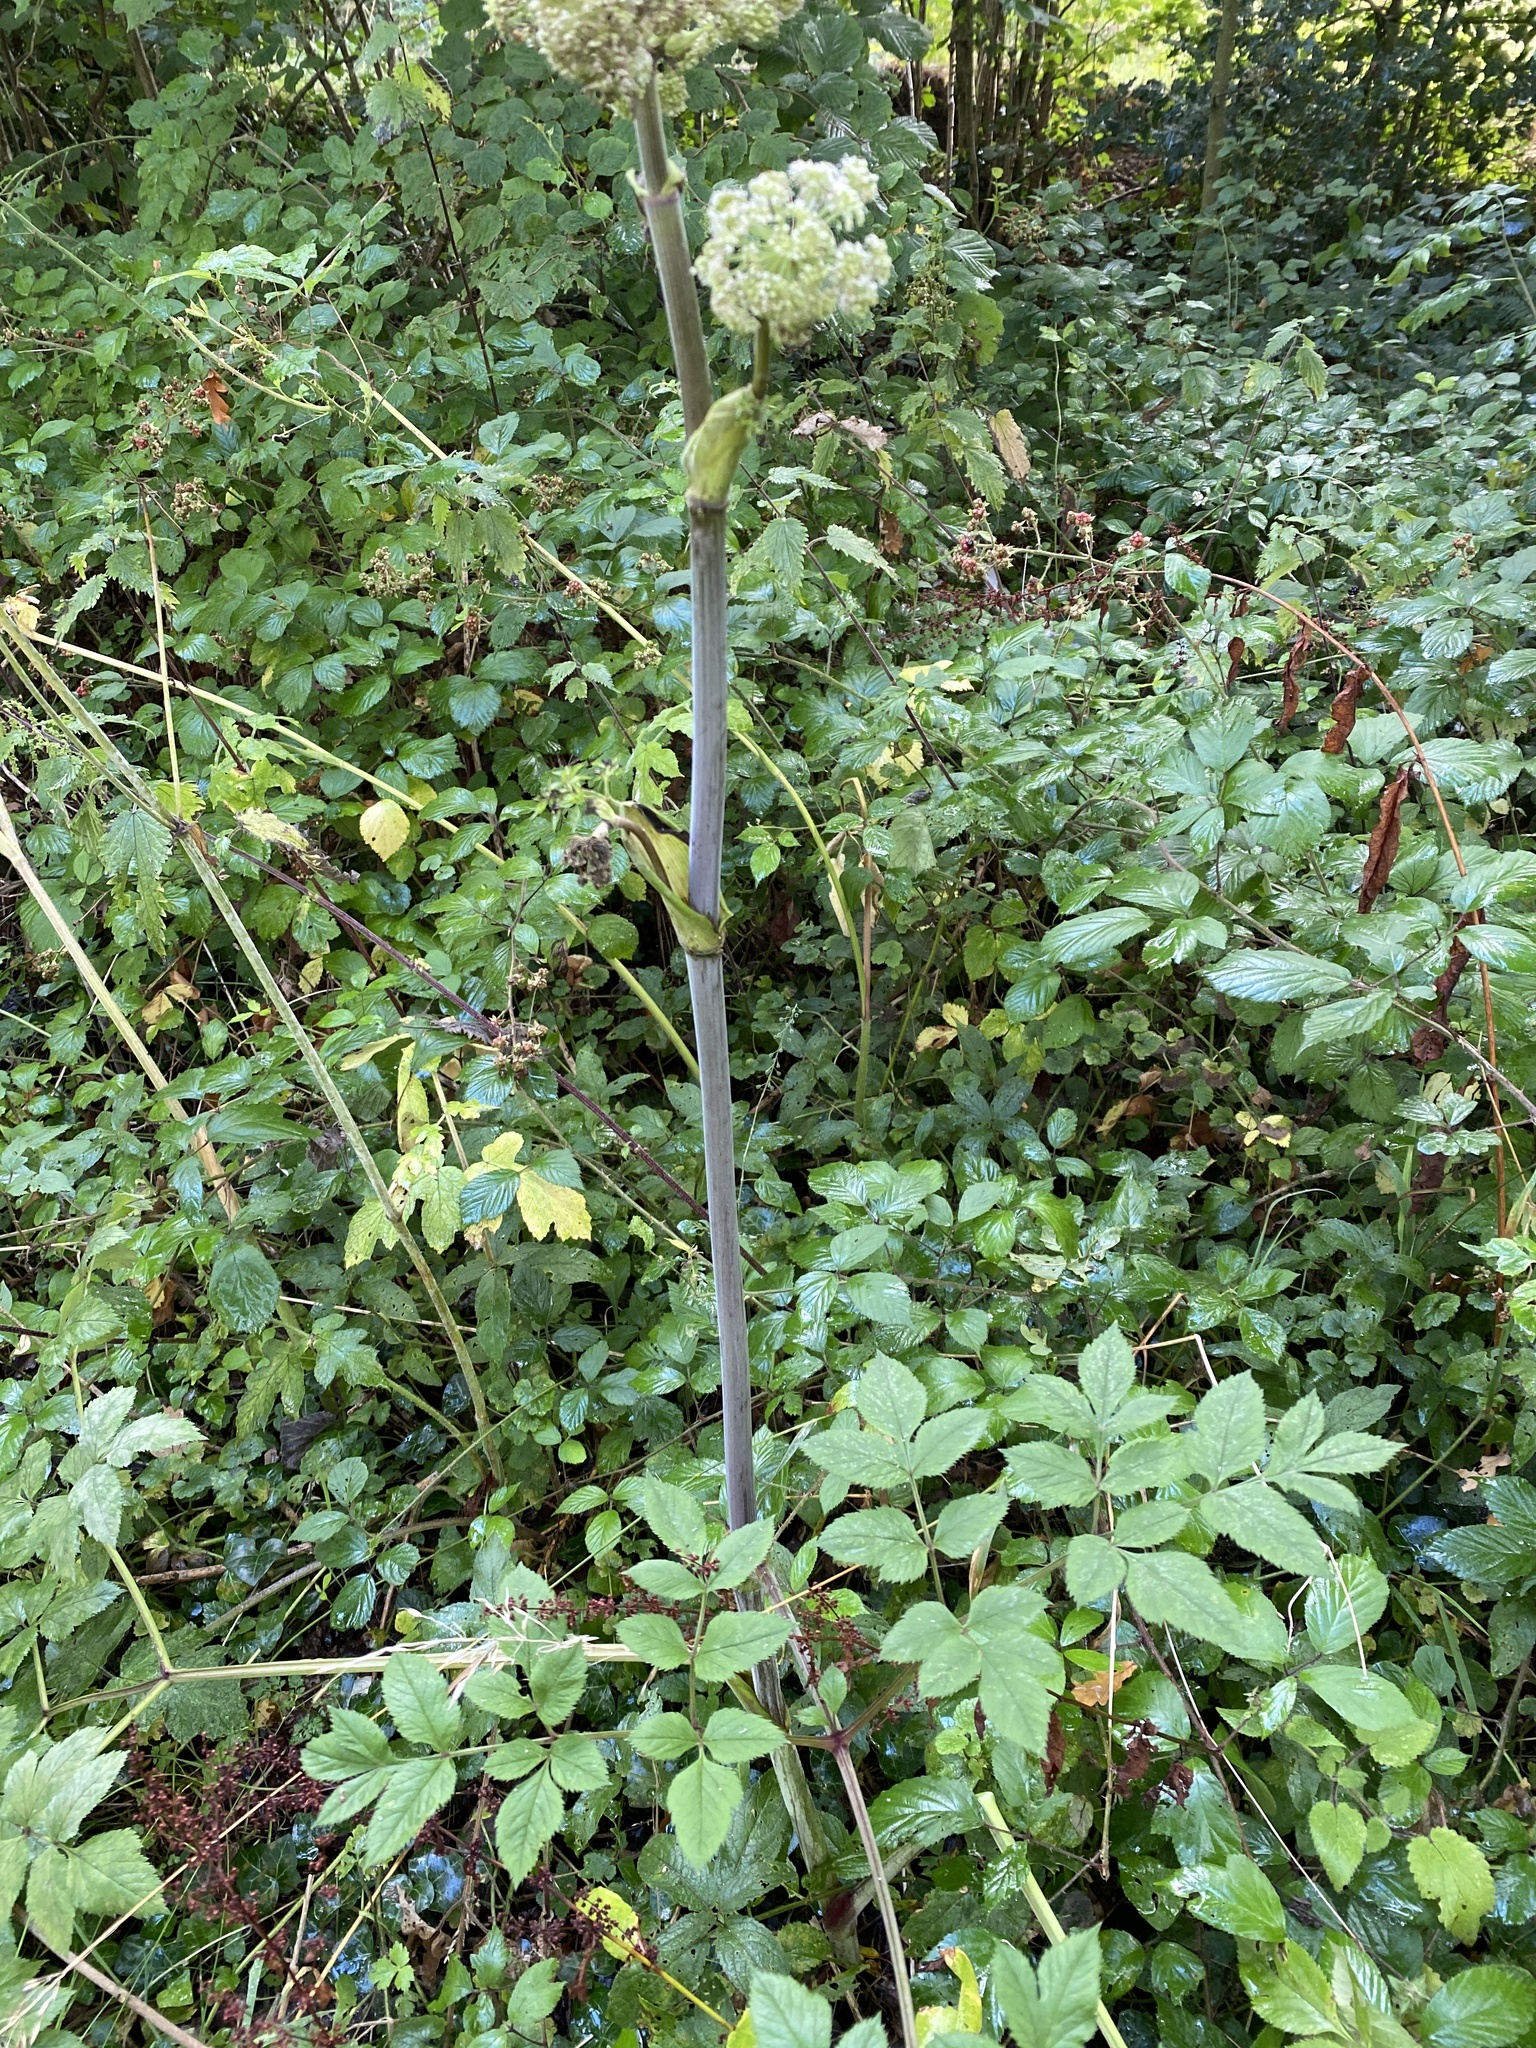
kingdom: Plantae
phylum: Tracheophyta
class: Magnoliopsida
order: Apiales
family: Apiaceae
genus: Angelica
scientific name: Angelica sylvestris
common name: Wild angelica
